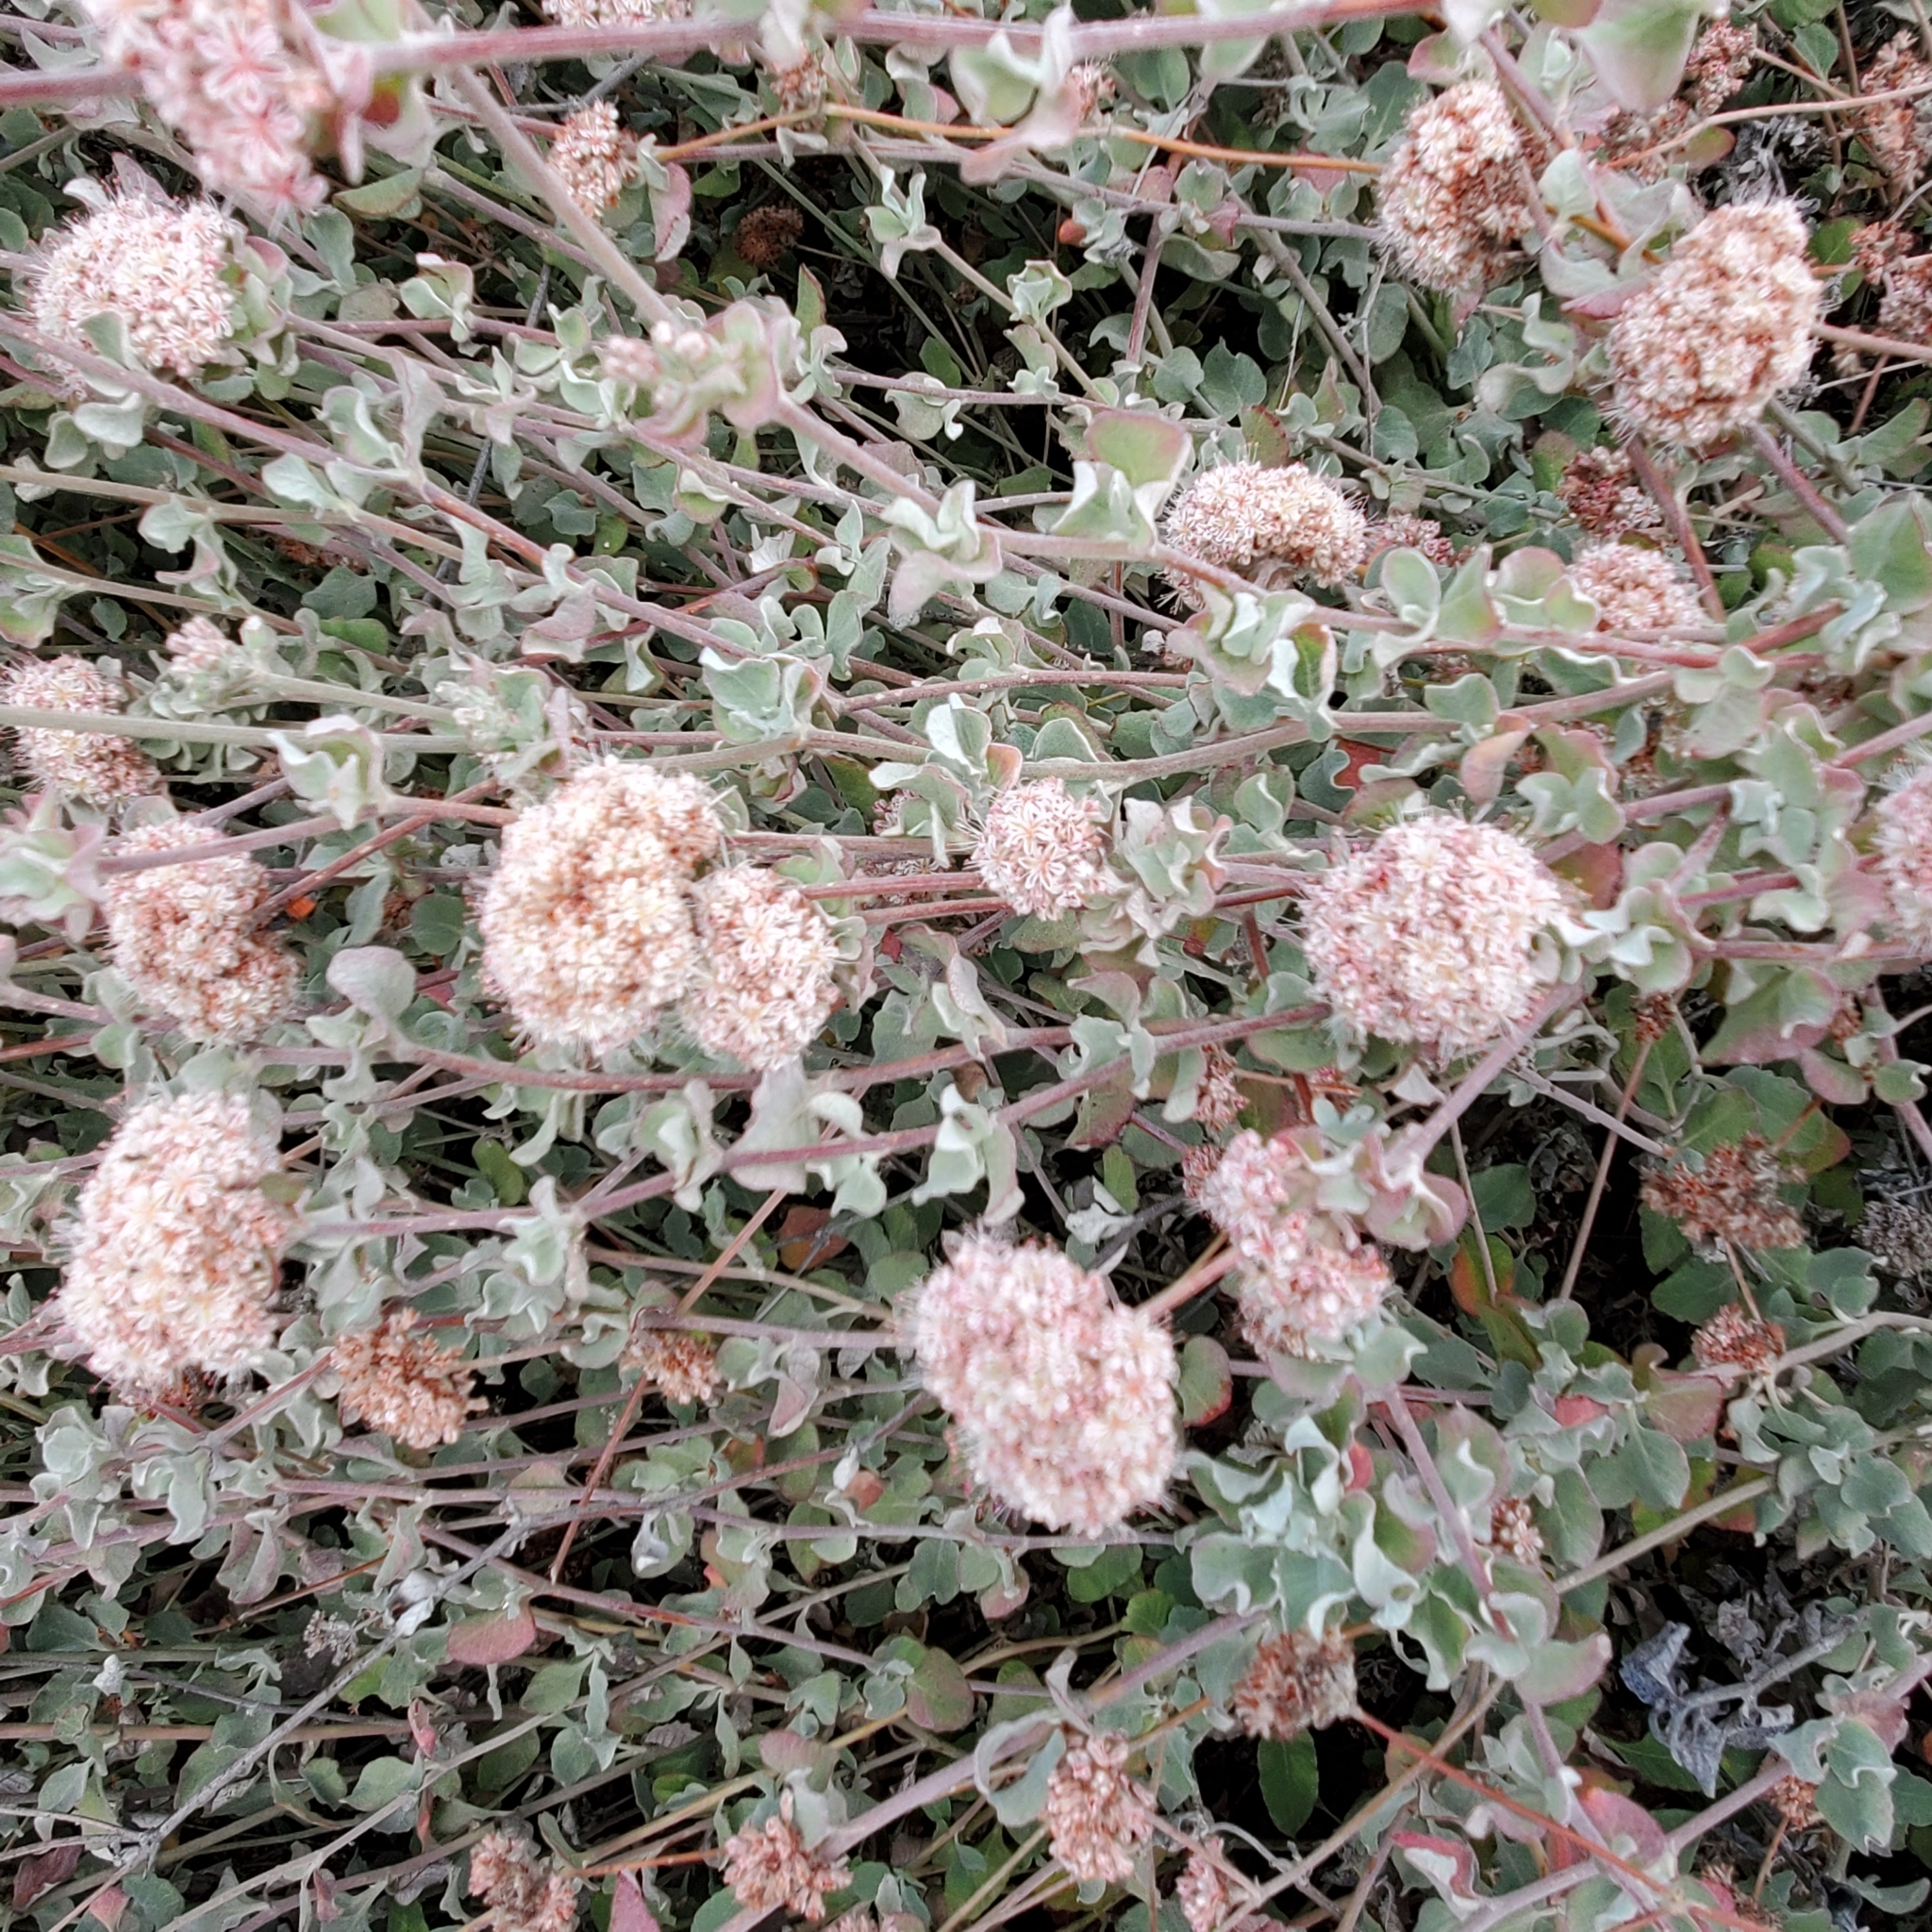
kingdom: Plantae
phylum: Tracheophyta
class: Magnoliopsida
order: Caryophyllales
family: Polygonaceae
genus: Eriogonum
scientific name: Eriogonum cinereum
